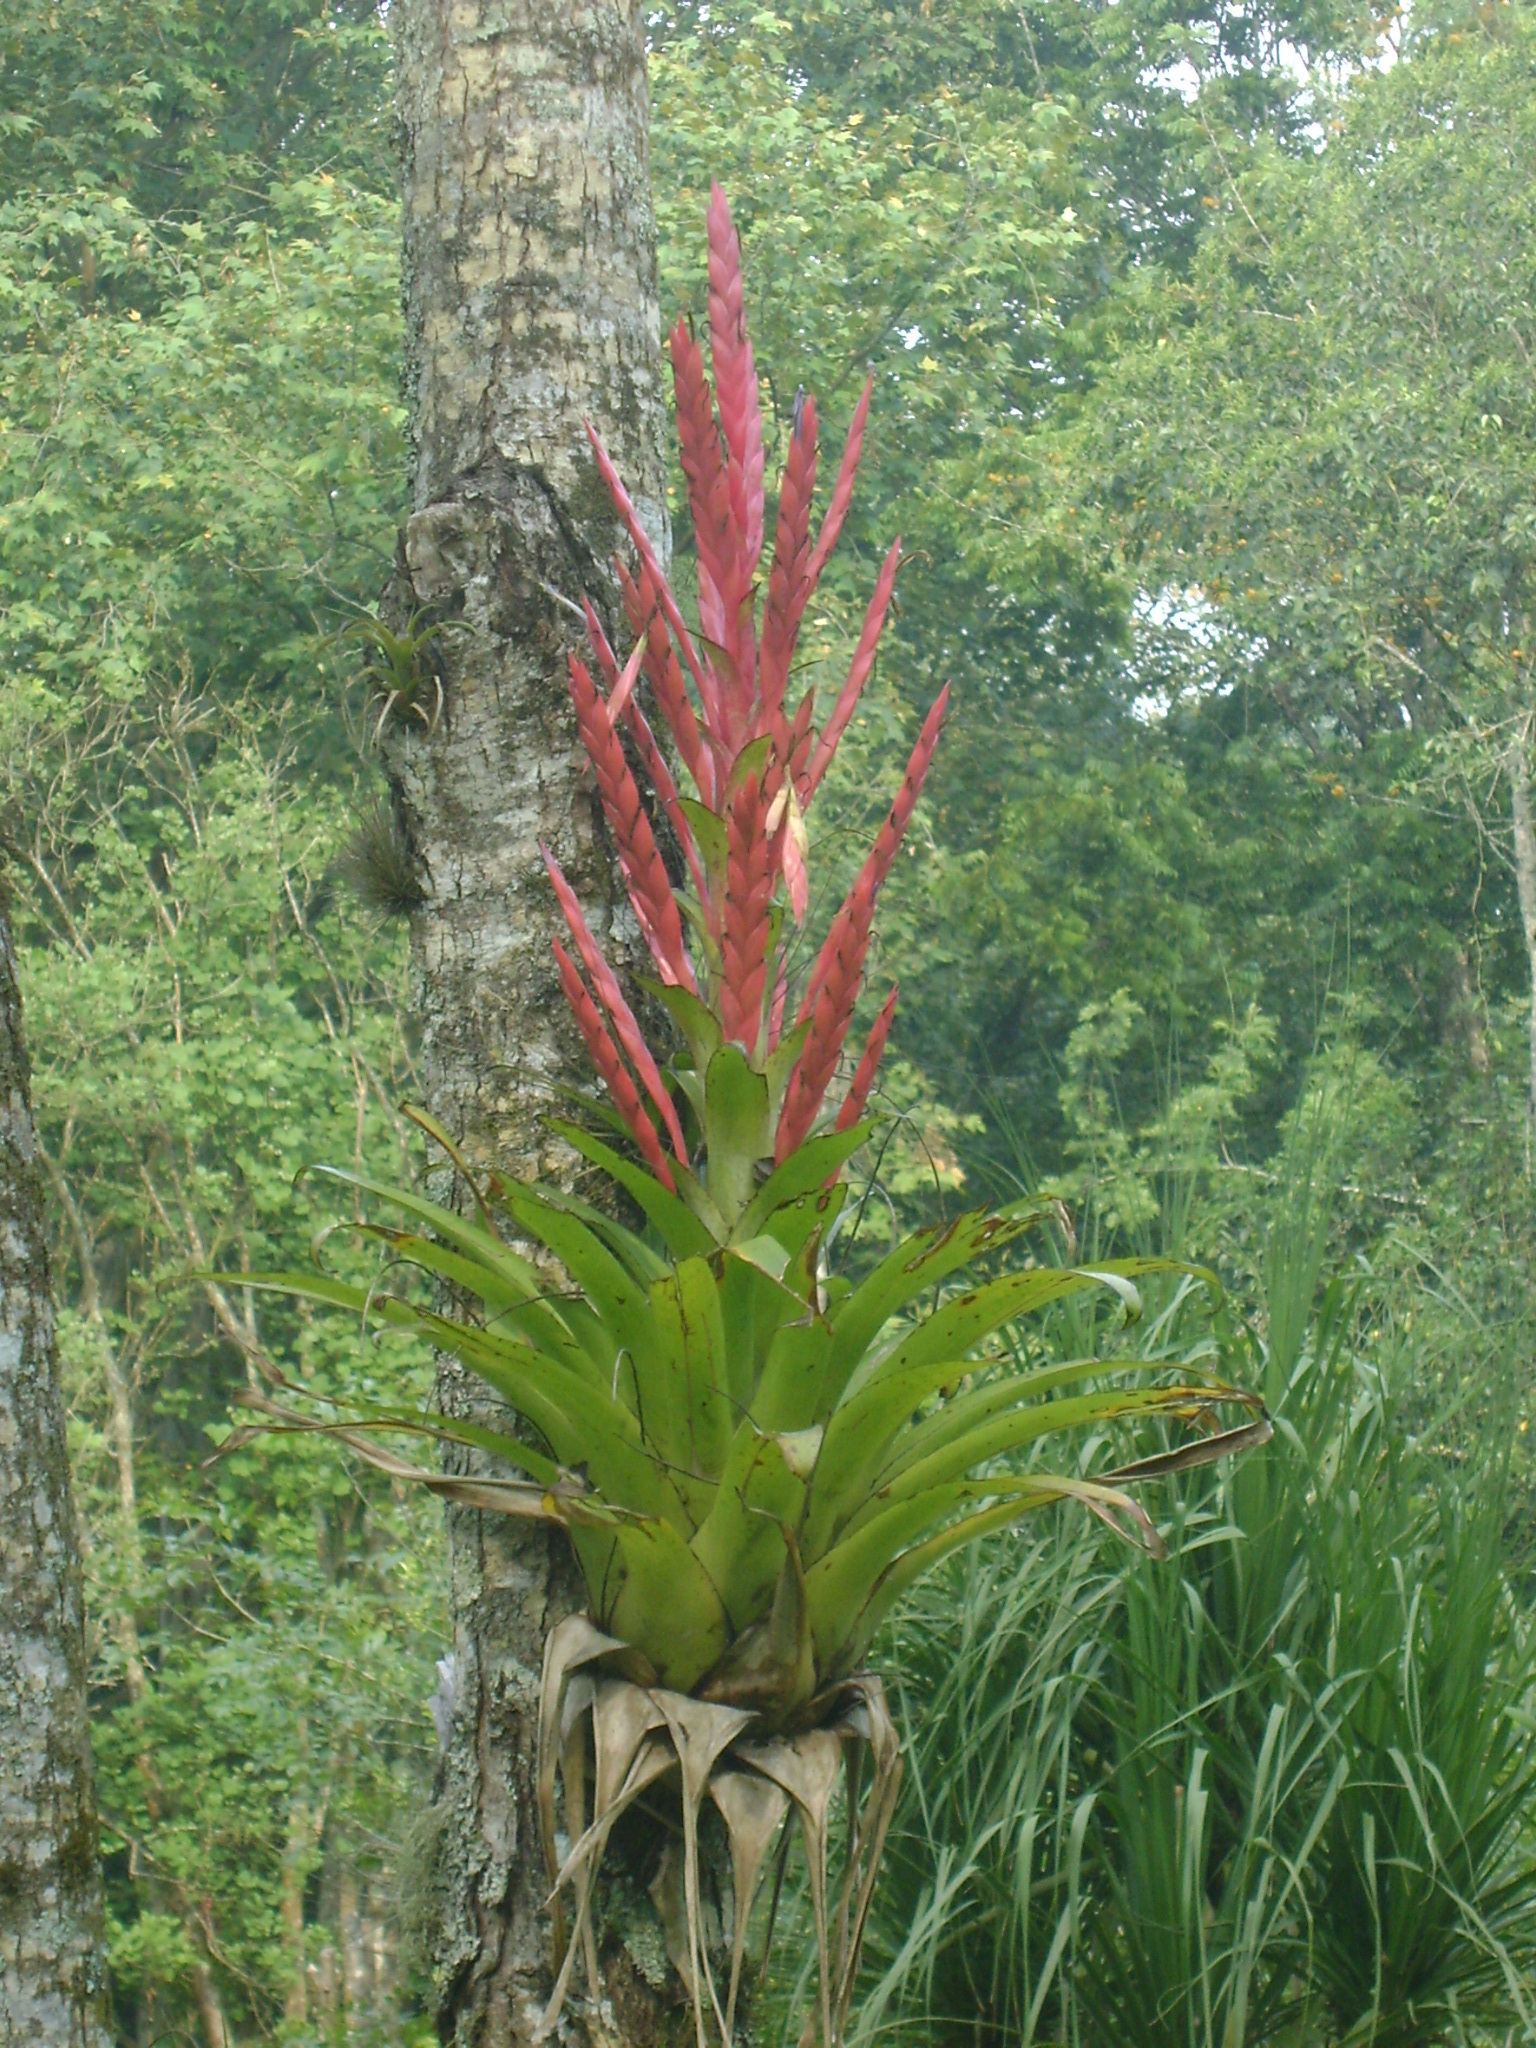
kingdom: Plantae
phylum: Tracheophyta
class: Liliopsida
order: Poales
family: Bromeliaceae
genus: Tillandsia
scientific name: Tillandsia deppeana
